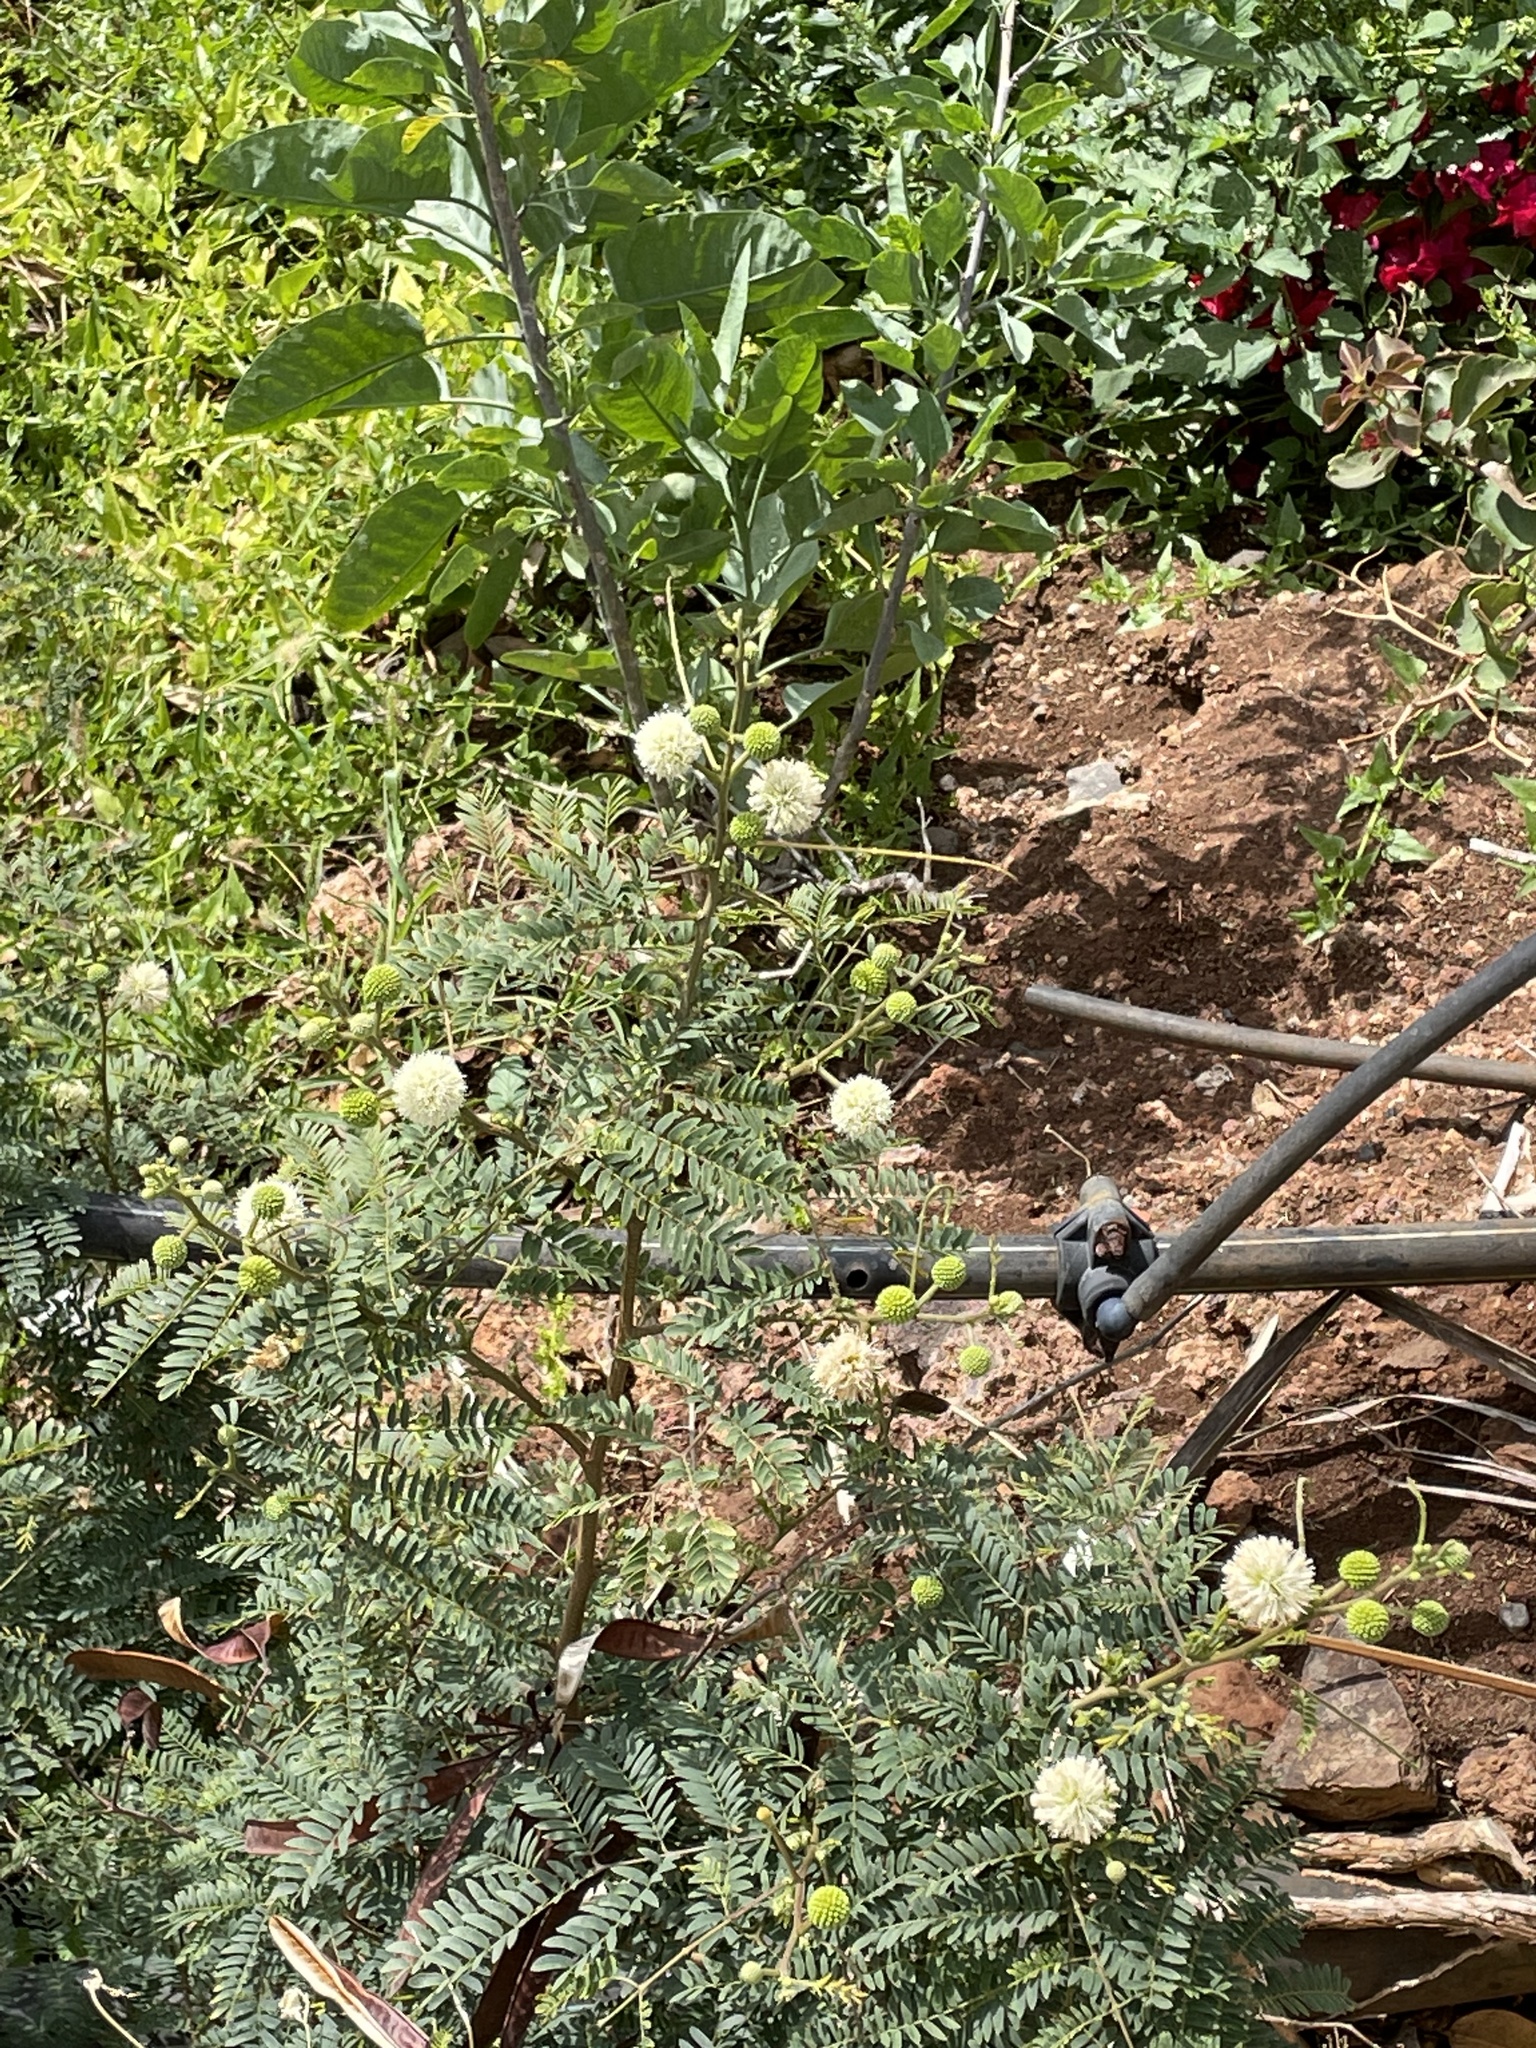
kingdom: Plantae
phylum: Tracheophyta
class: Magnoliopsida
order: Fabales
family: Fabaceae
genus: Leucaena
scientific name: Leucaena leucocephala
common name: White leadtree
